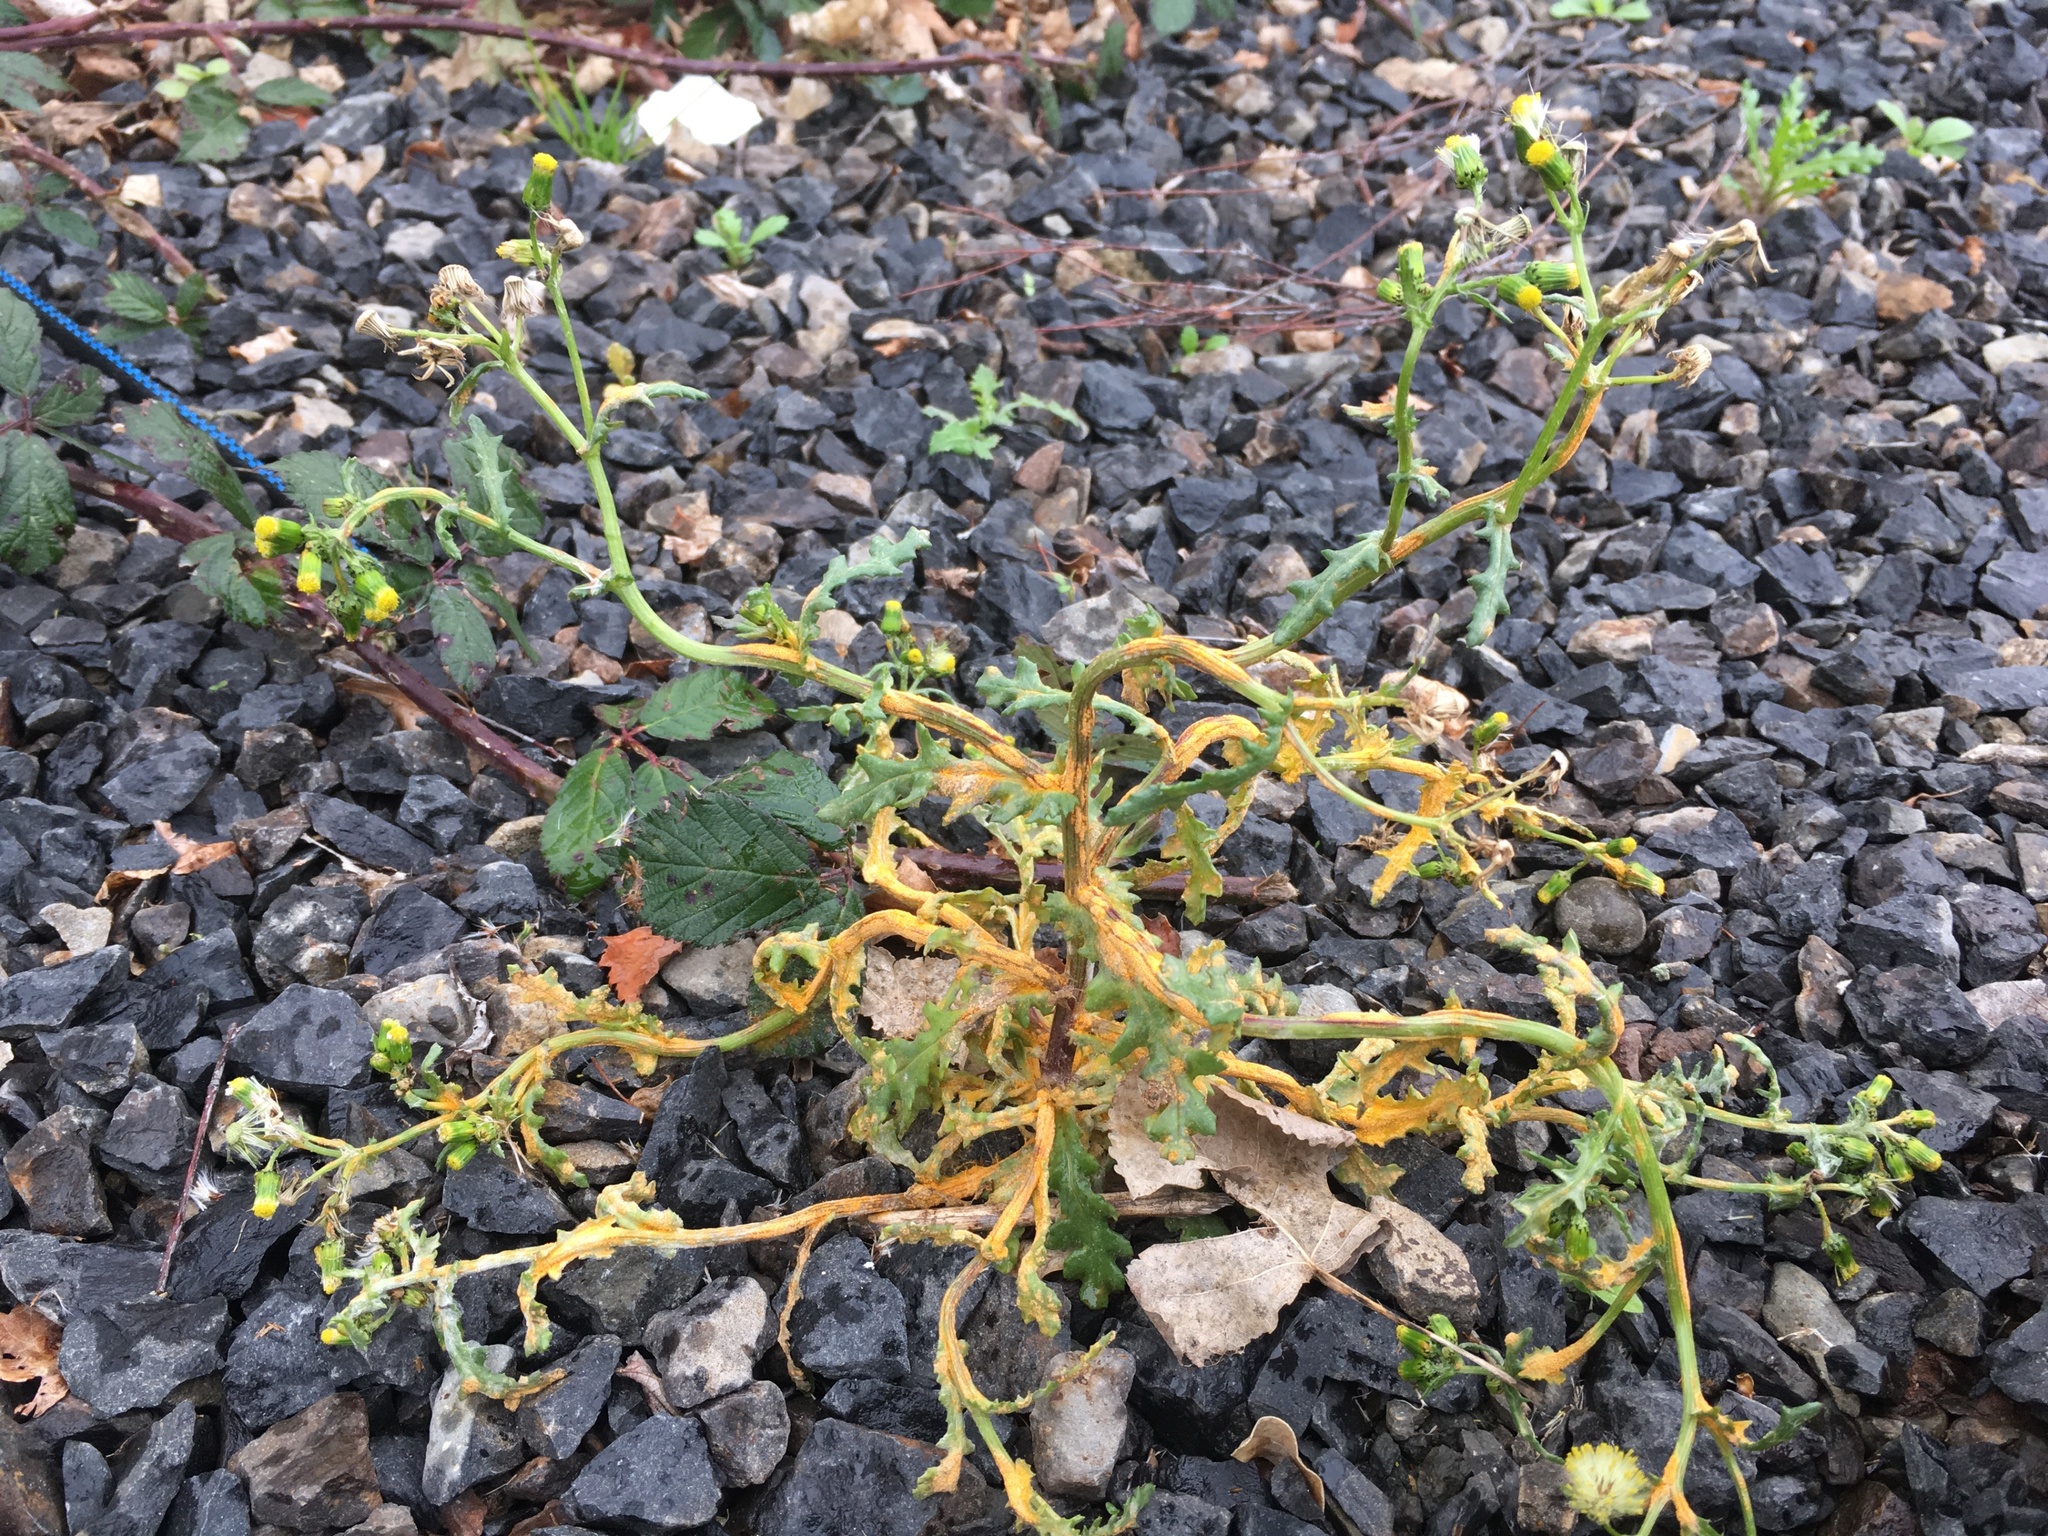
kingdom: Fungi
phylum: Basidiomycota
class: Pucciniomycetes
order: Pucciniales
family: Pucciniaceae
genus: Puccinia
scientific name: Puccinia lagenophorae
